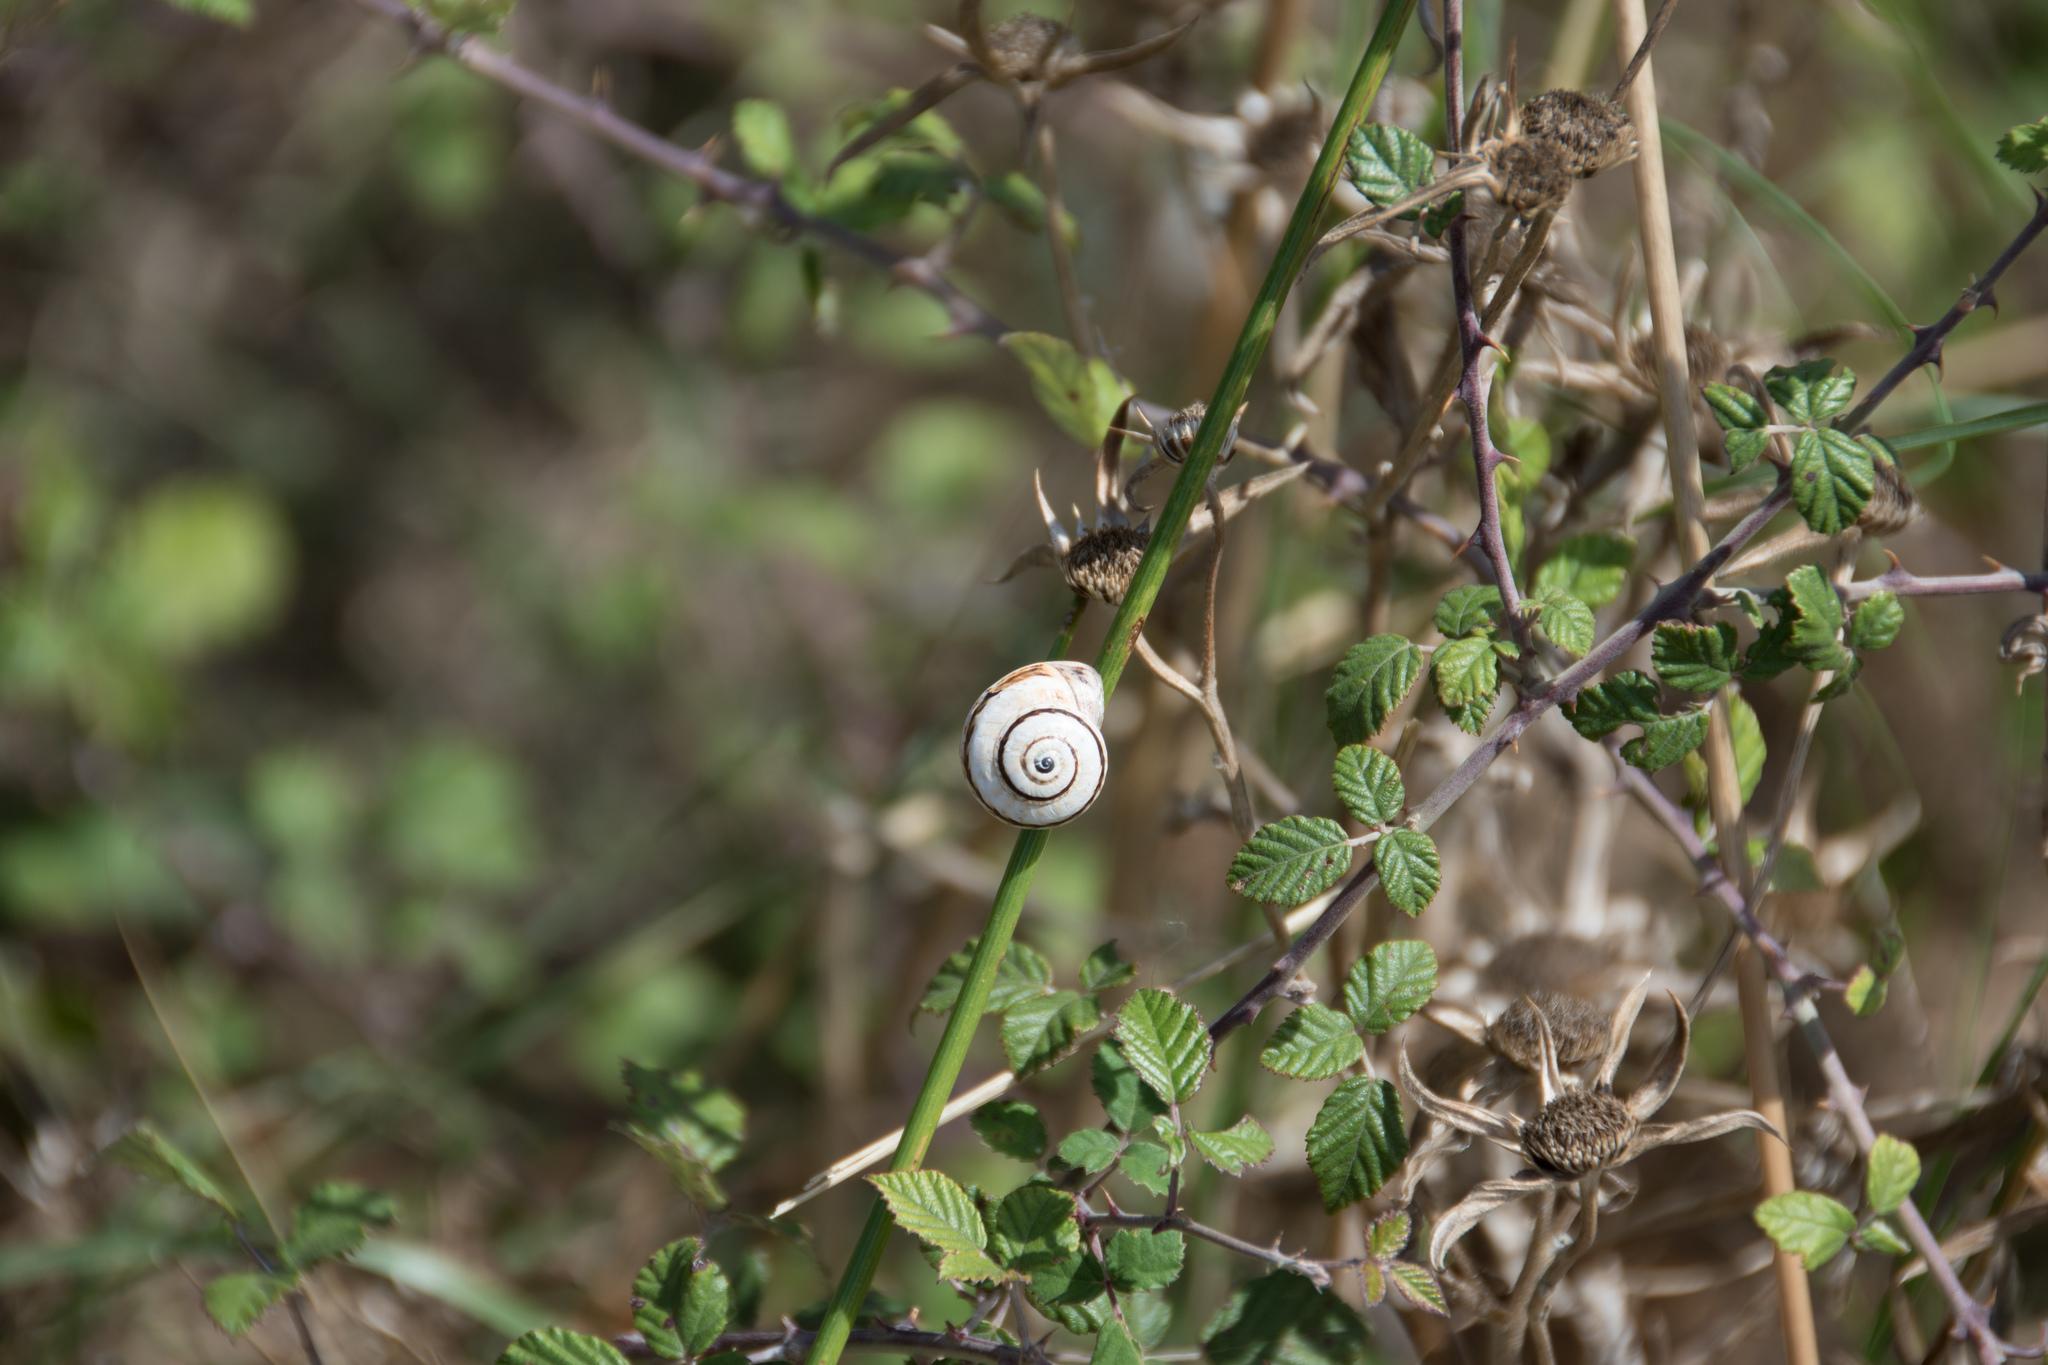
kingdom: Animalia
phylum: Mollusca
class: Gastropoda
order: Stylommatophora
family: Helicidae
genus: Theba
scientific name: Theba pisana
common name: White snail
